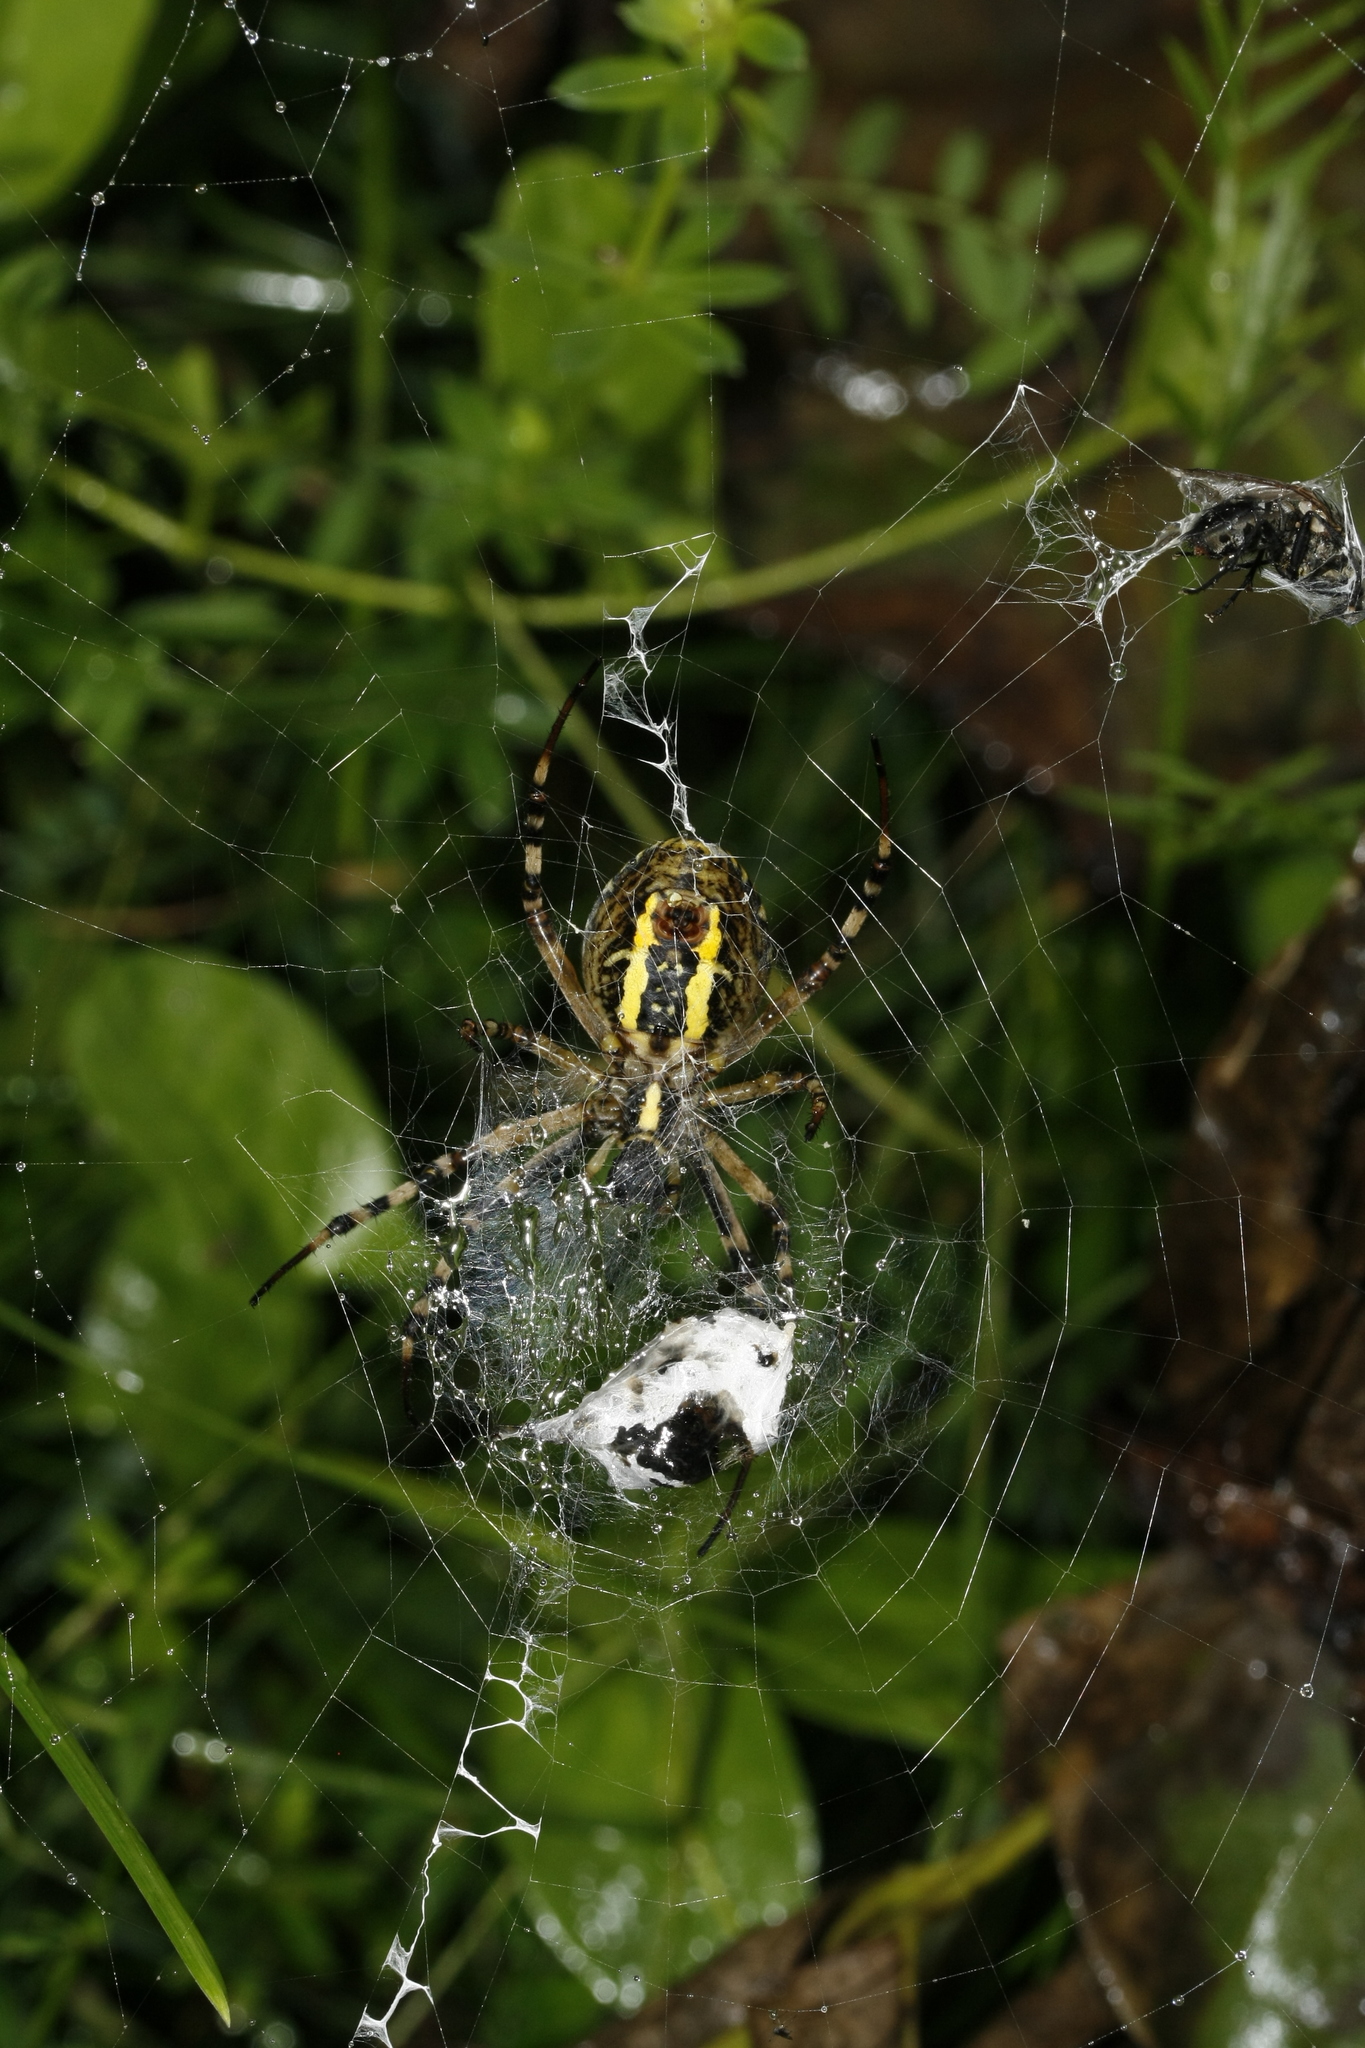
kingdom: Animalia
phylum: Arthropoda
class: Arachnida
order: Araneae
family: Araneidae
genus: Argiope
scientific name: Argiope bruennichi
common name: Wasp spider
